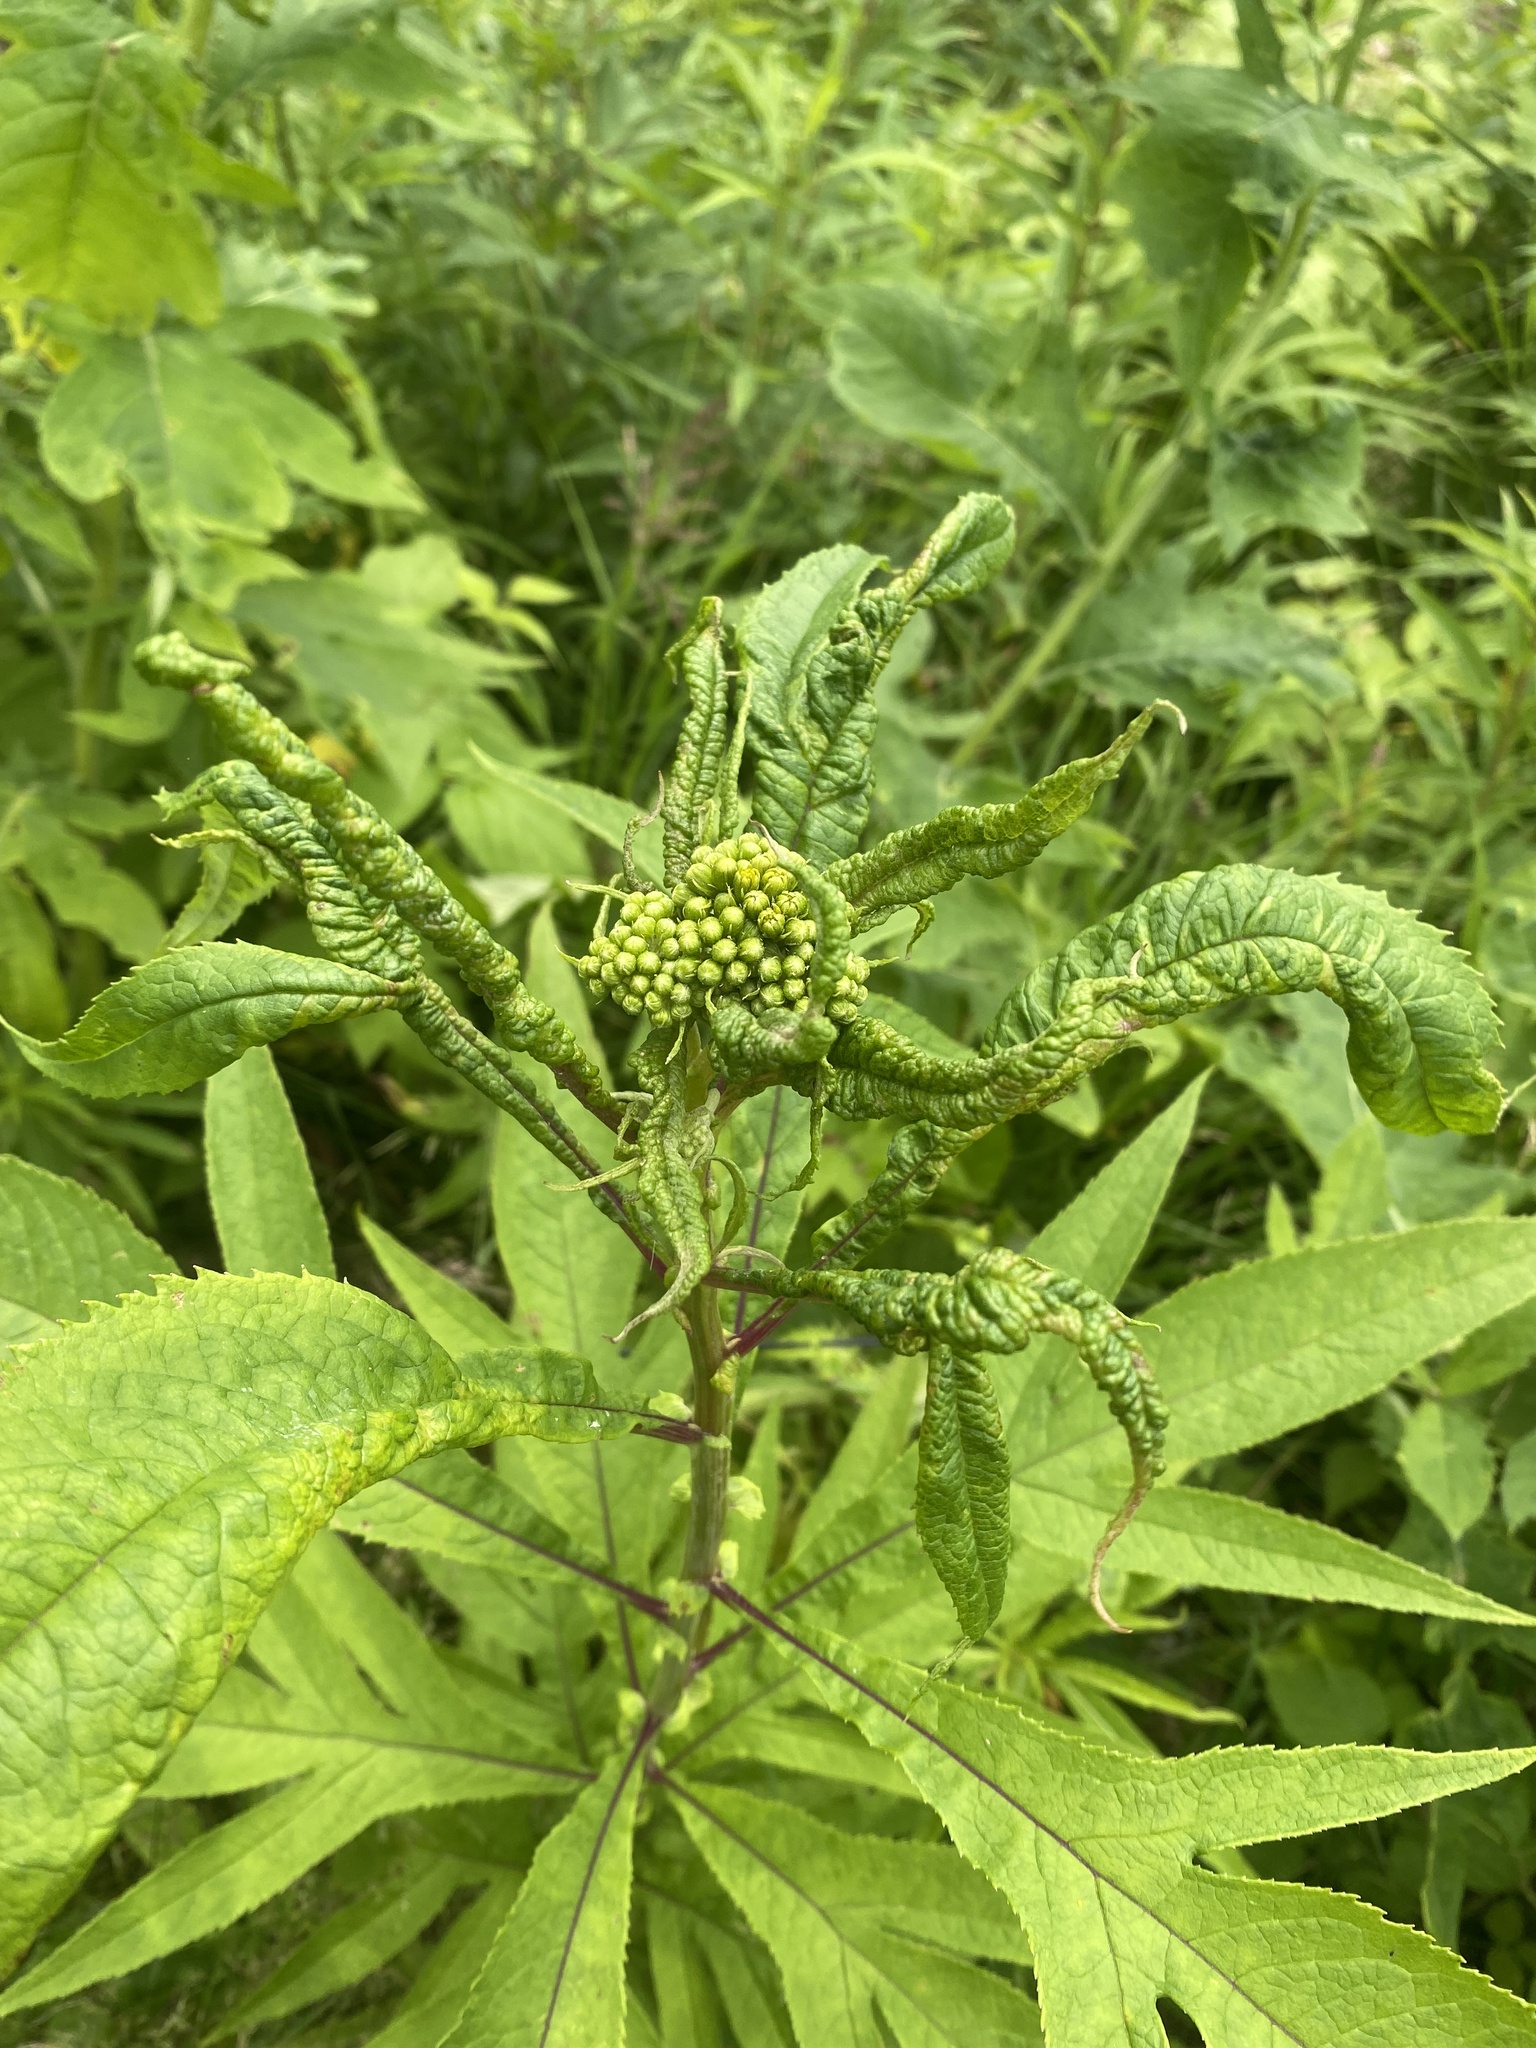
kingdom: Plantae
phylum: Tracheophyta
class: Magnoliopsida
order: Asterales
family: Asteraceae
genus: Jacobaea
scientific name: Jacobaea cannabifolia
